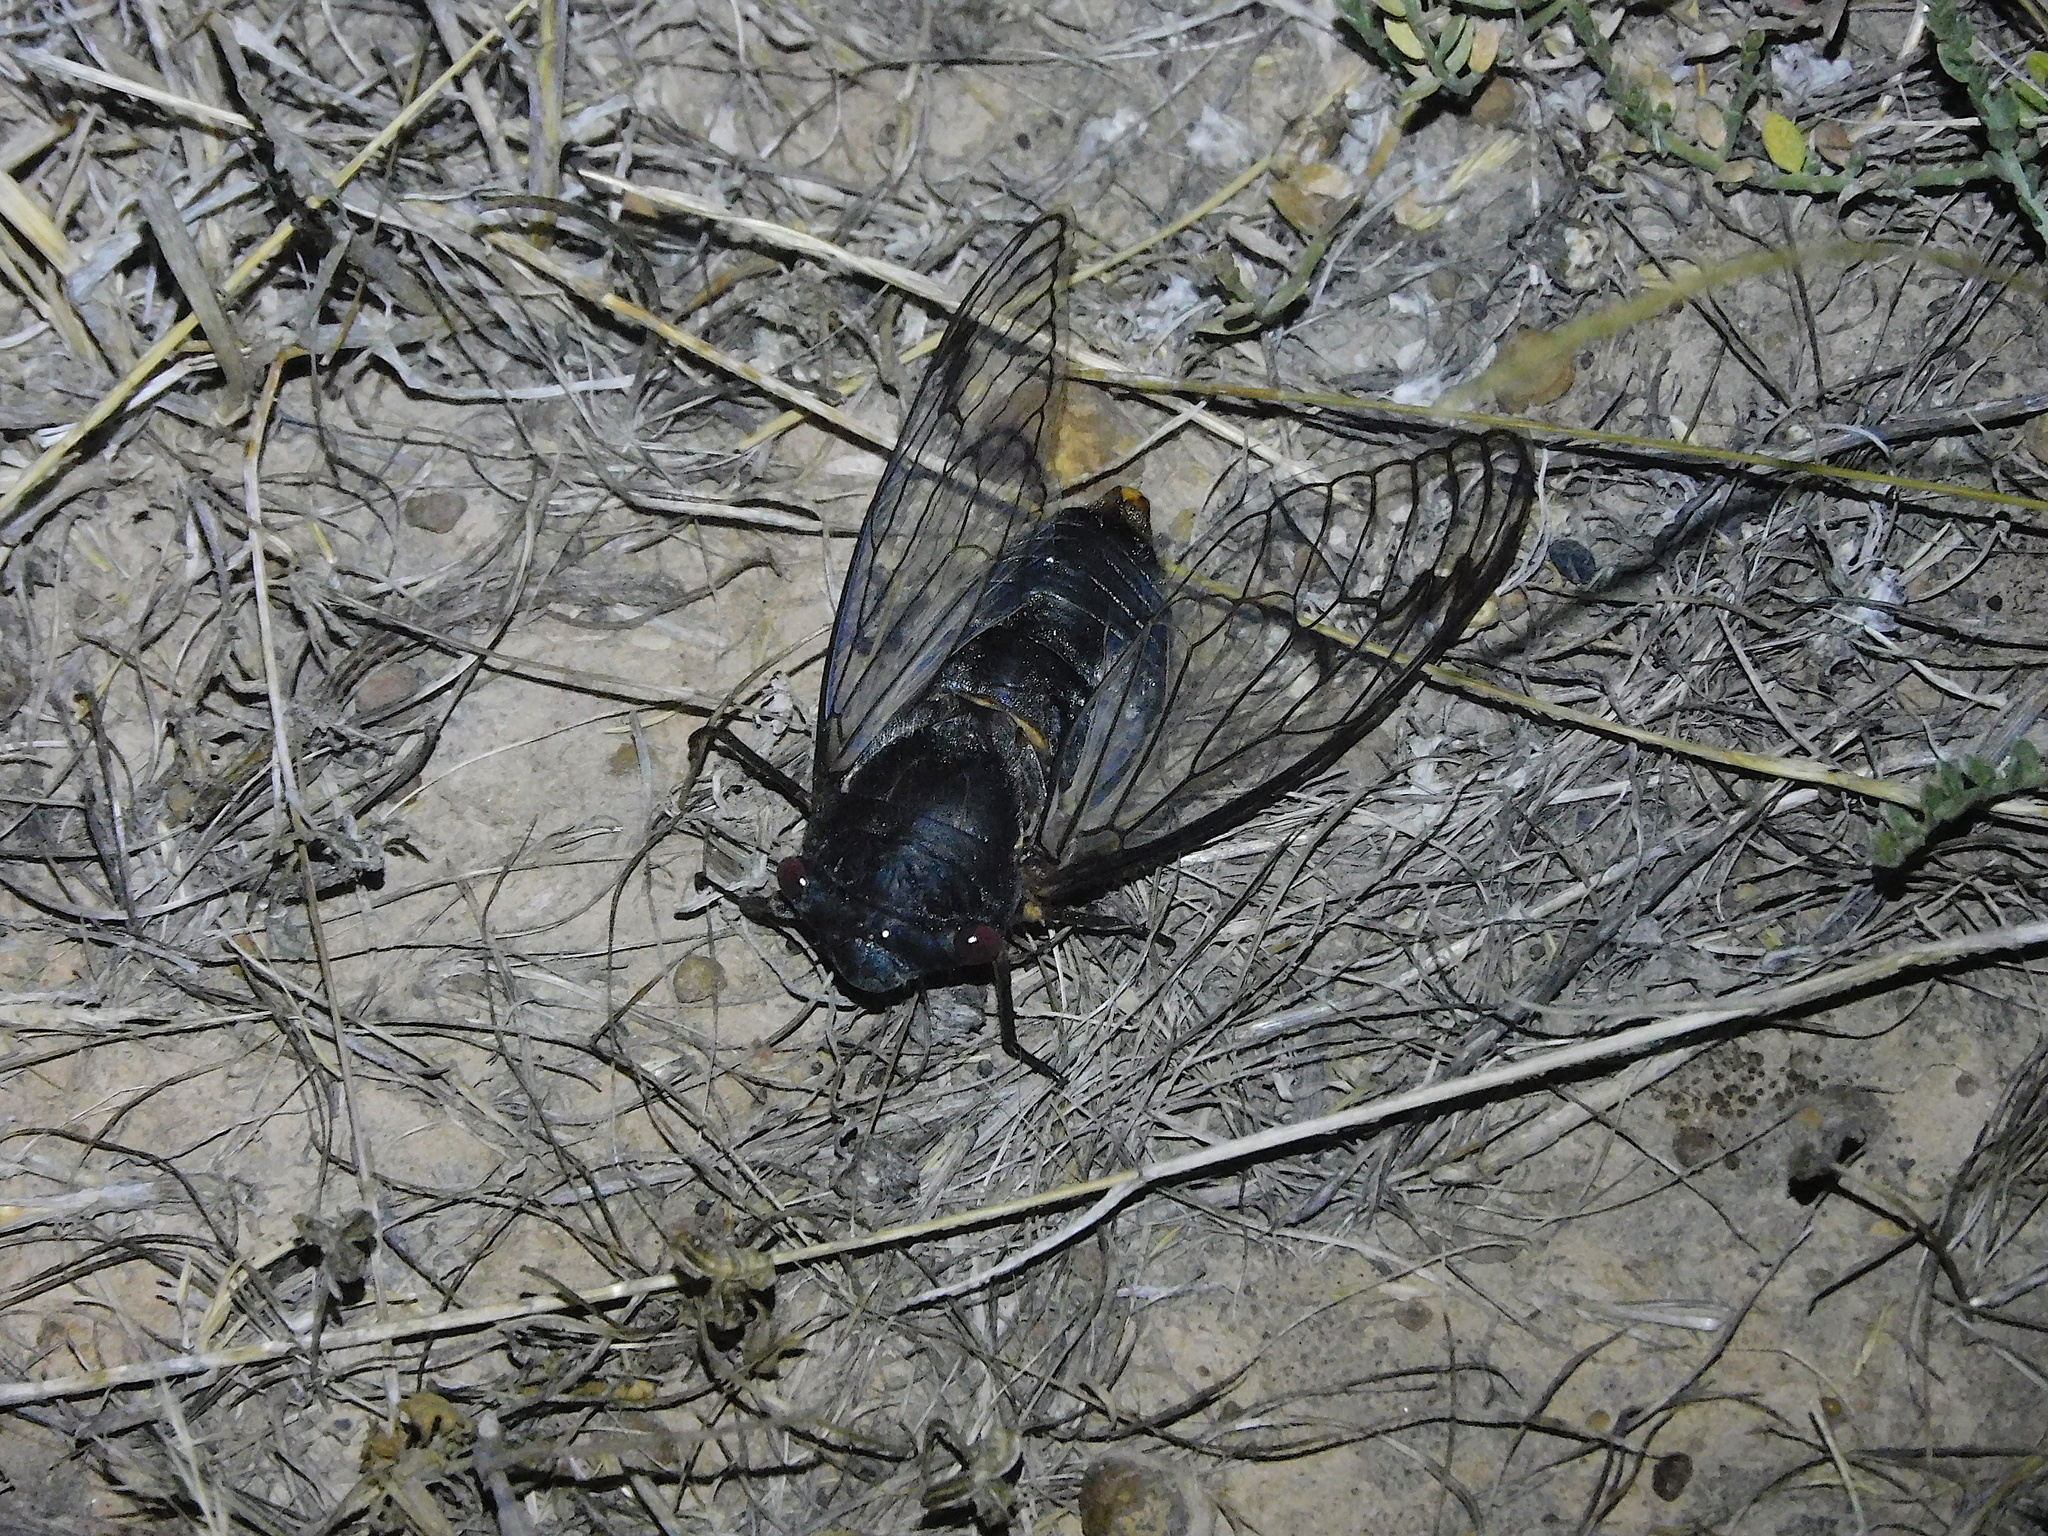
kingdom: Animalia
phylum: Arthropoda
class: Insecta
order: Hemiptera
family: Cicadidae
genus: Psaltoda
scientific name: Psaltoda moerens
